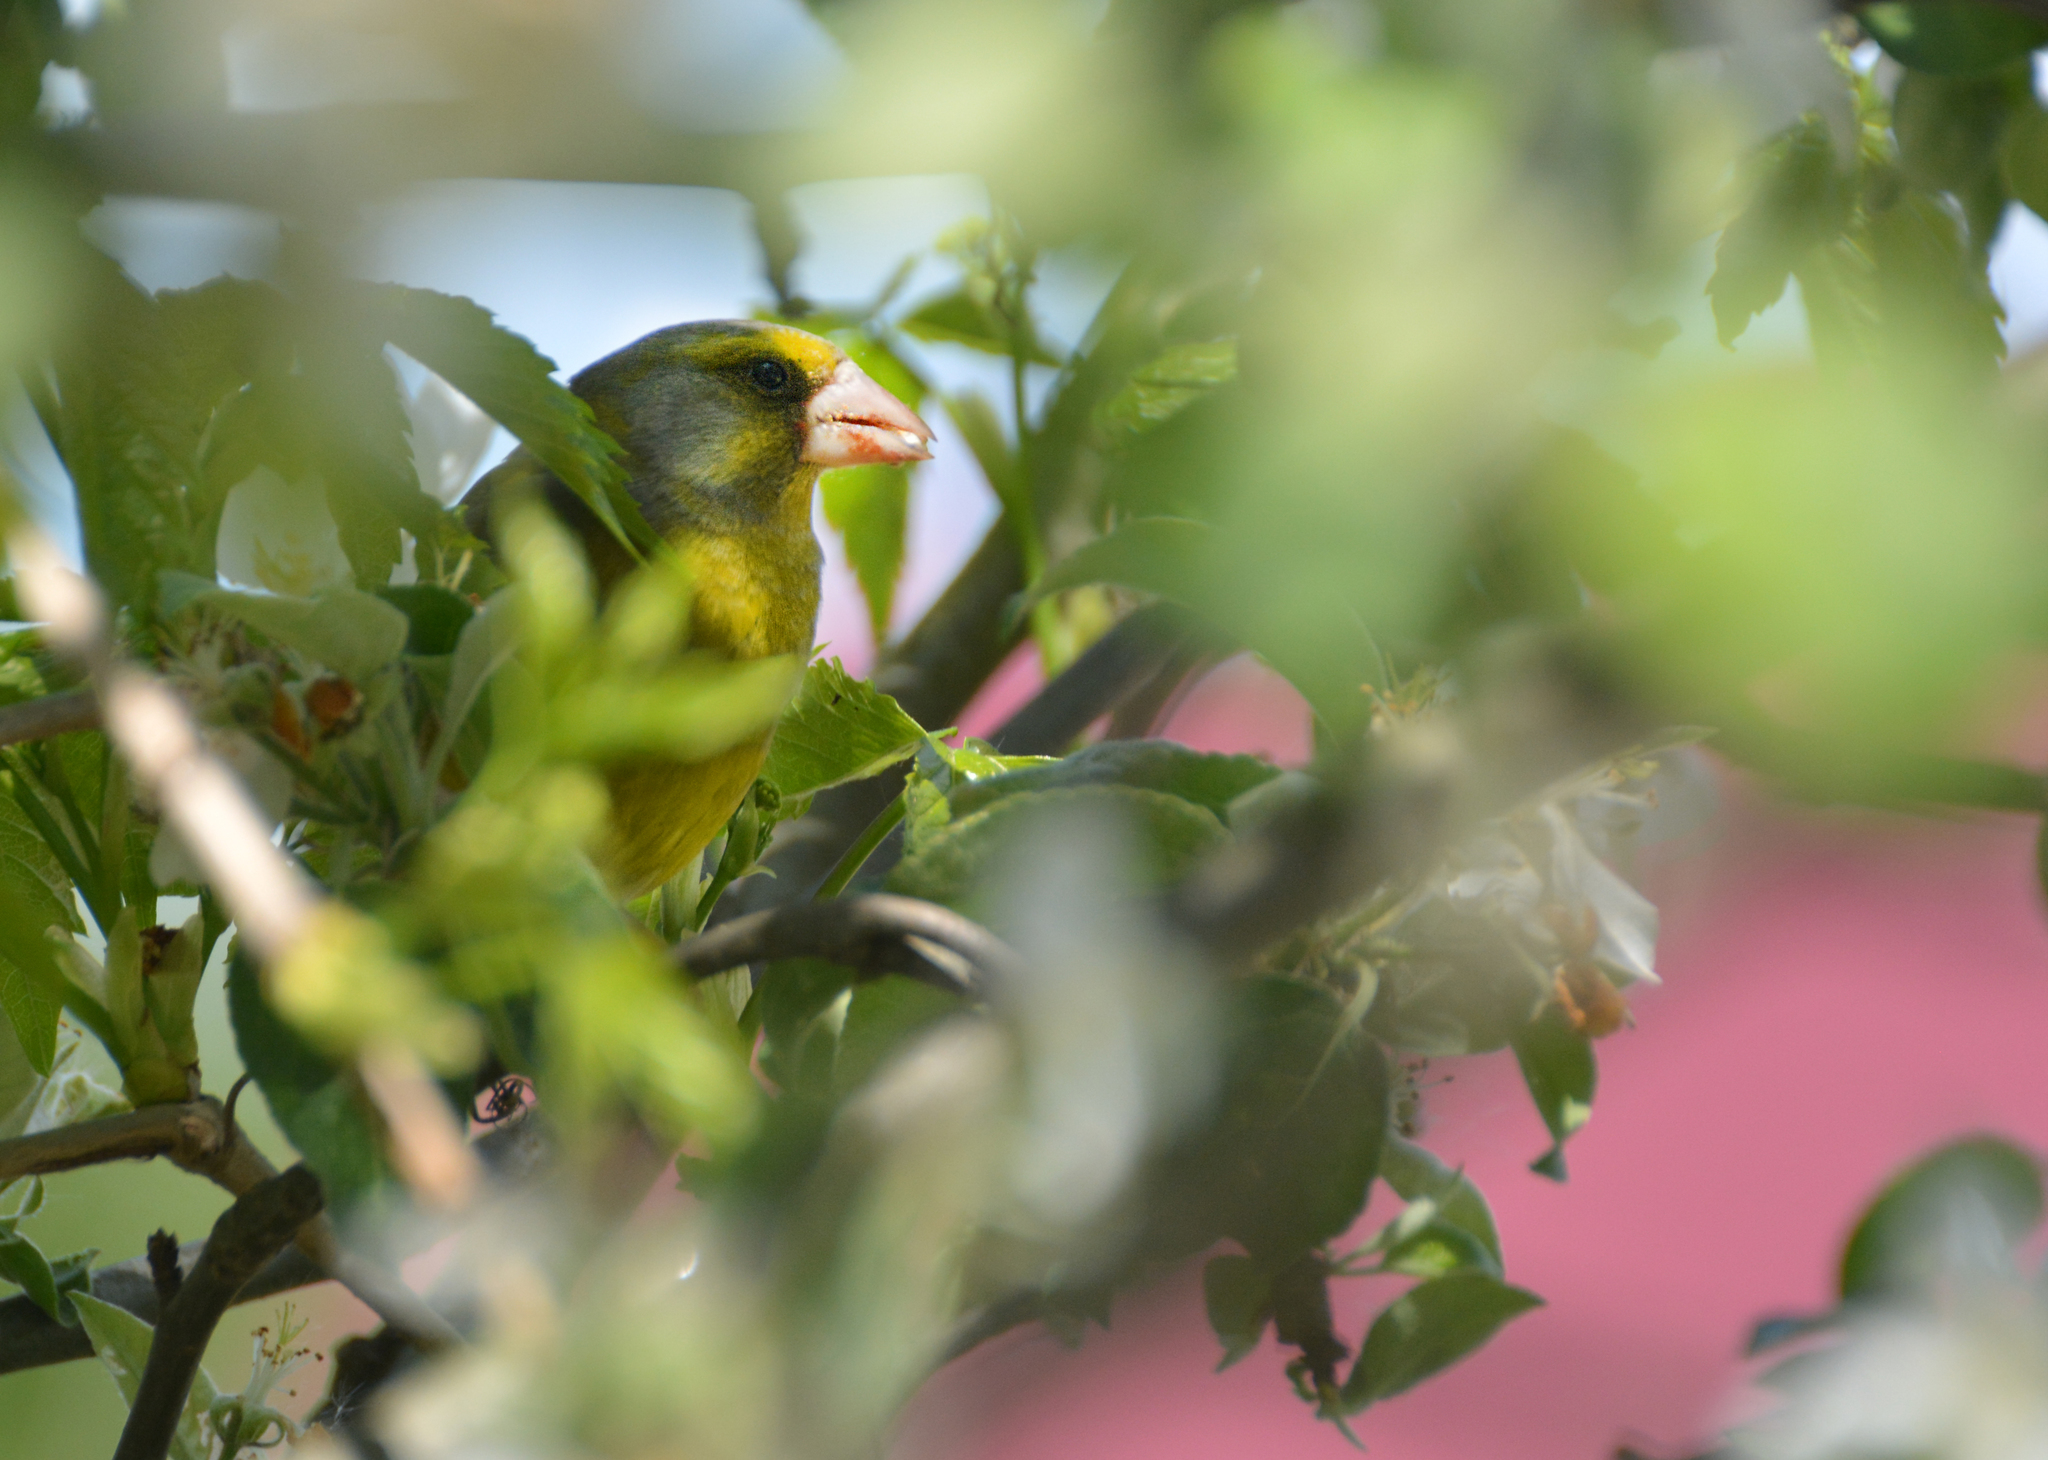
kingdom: Plantae
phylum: Tracheophyta
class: Liliopsida
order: Poales
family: Poaceae
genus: Chloris
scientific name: Chloris chloris
